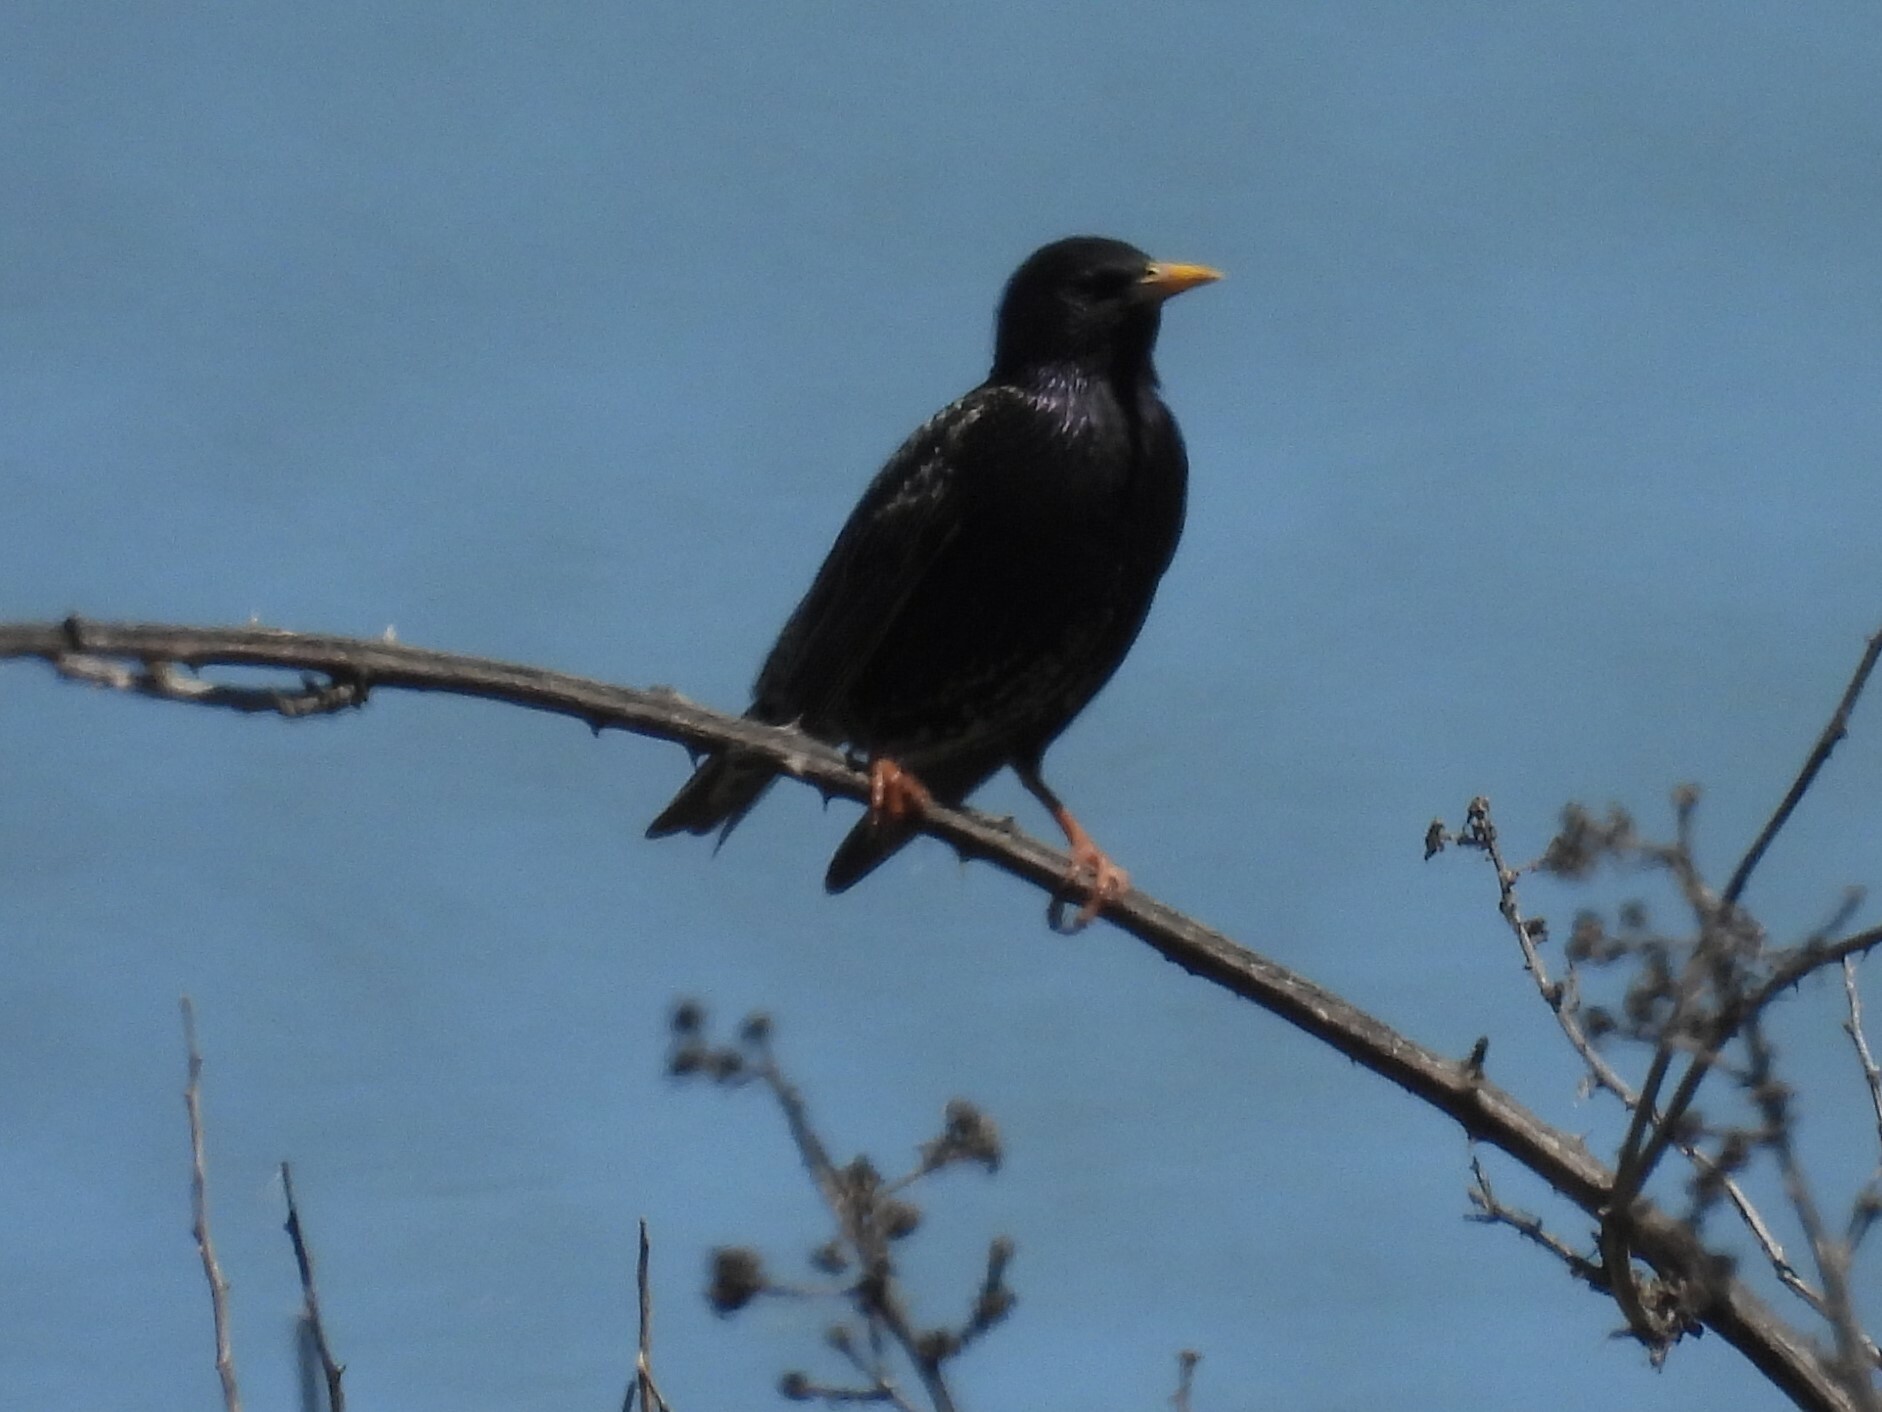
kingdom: Animalia
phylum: Chordata
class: Aves
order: Passeriformes
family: Sturnidae
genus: Sturnus
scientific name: Sturnus vulgaris
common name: Common starling
